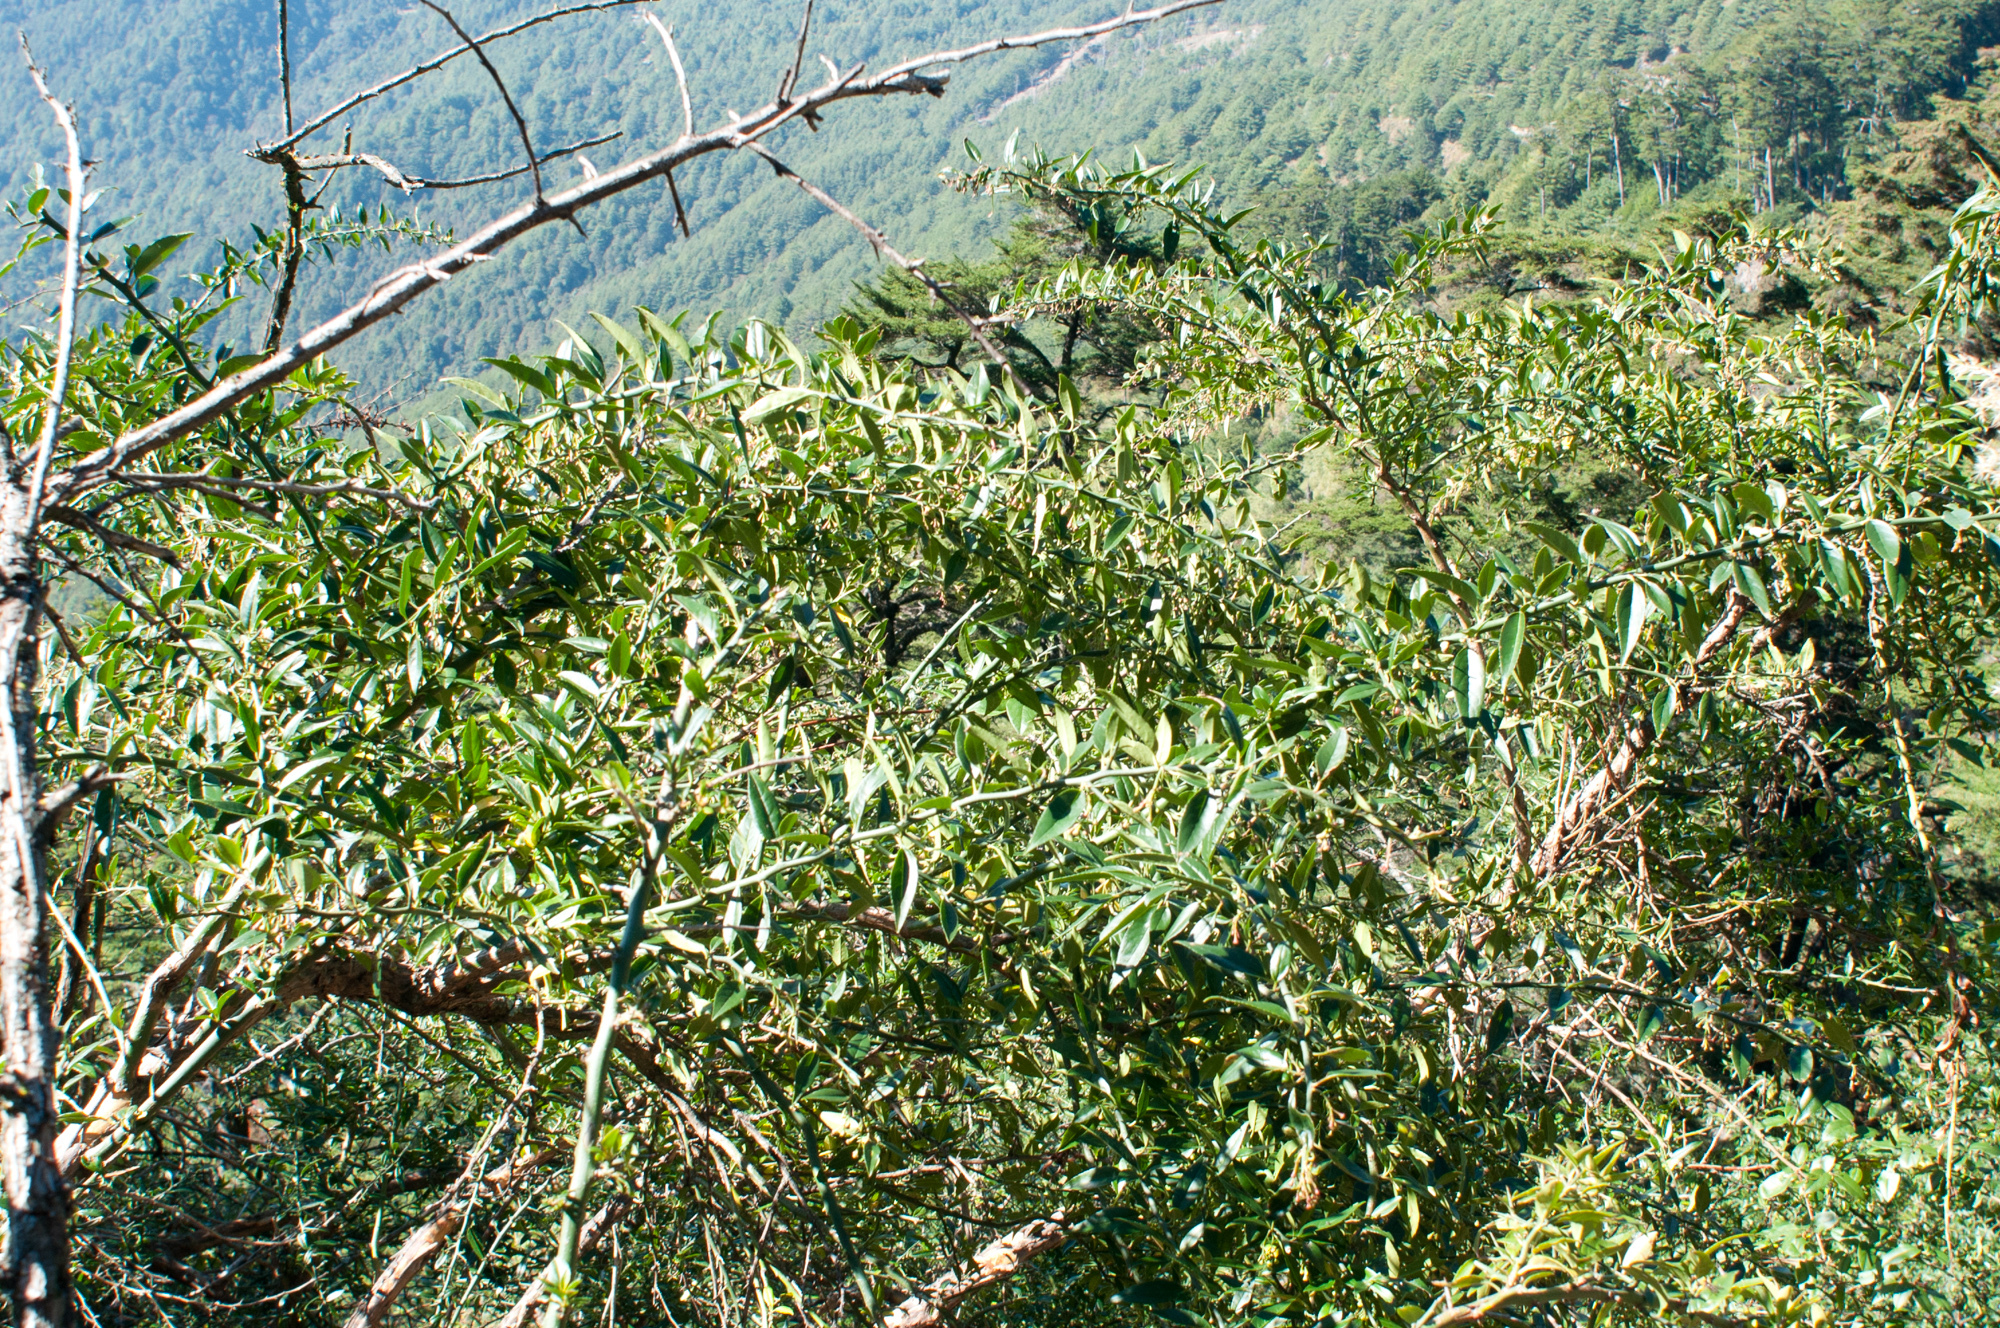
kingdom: Plantae
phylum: Tracheophyta
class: Magnoliopsida
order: Rosales
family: Rosaceae
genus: Prinsepia
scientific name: Prinsepia scandens
